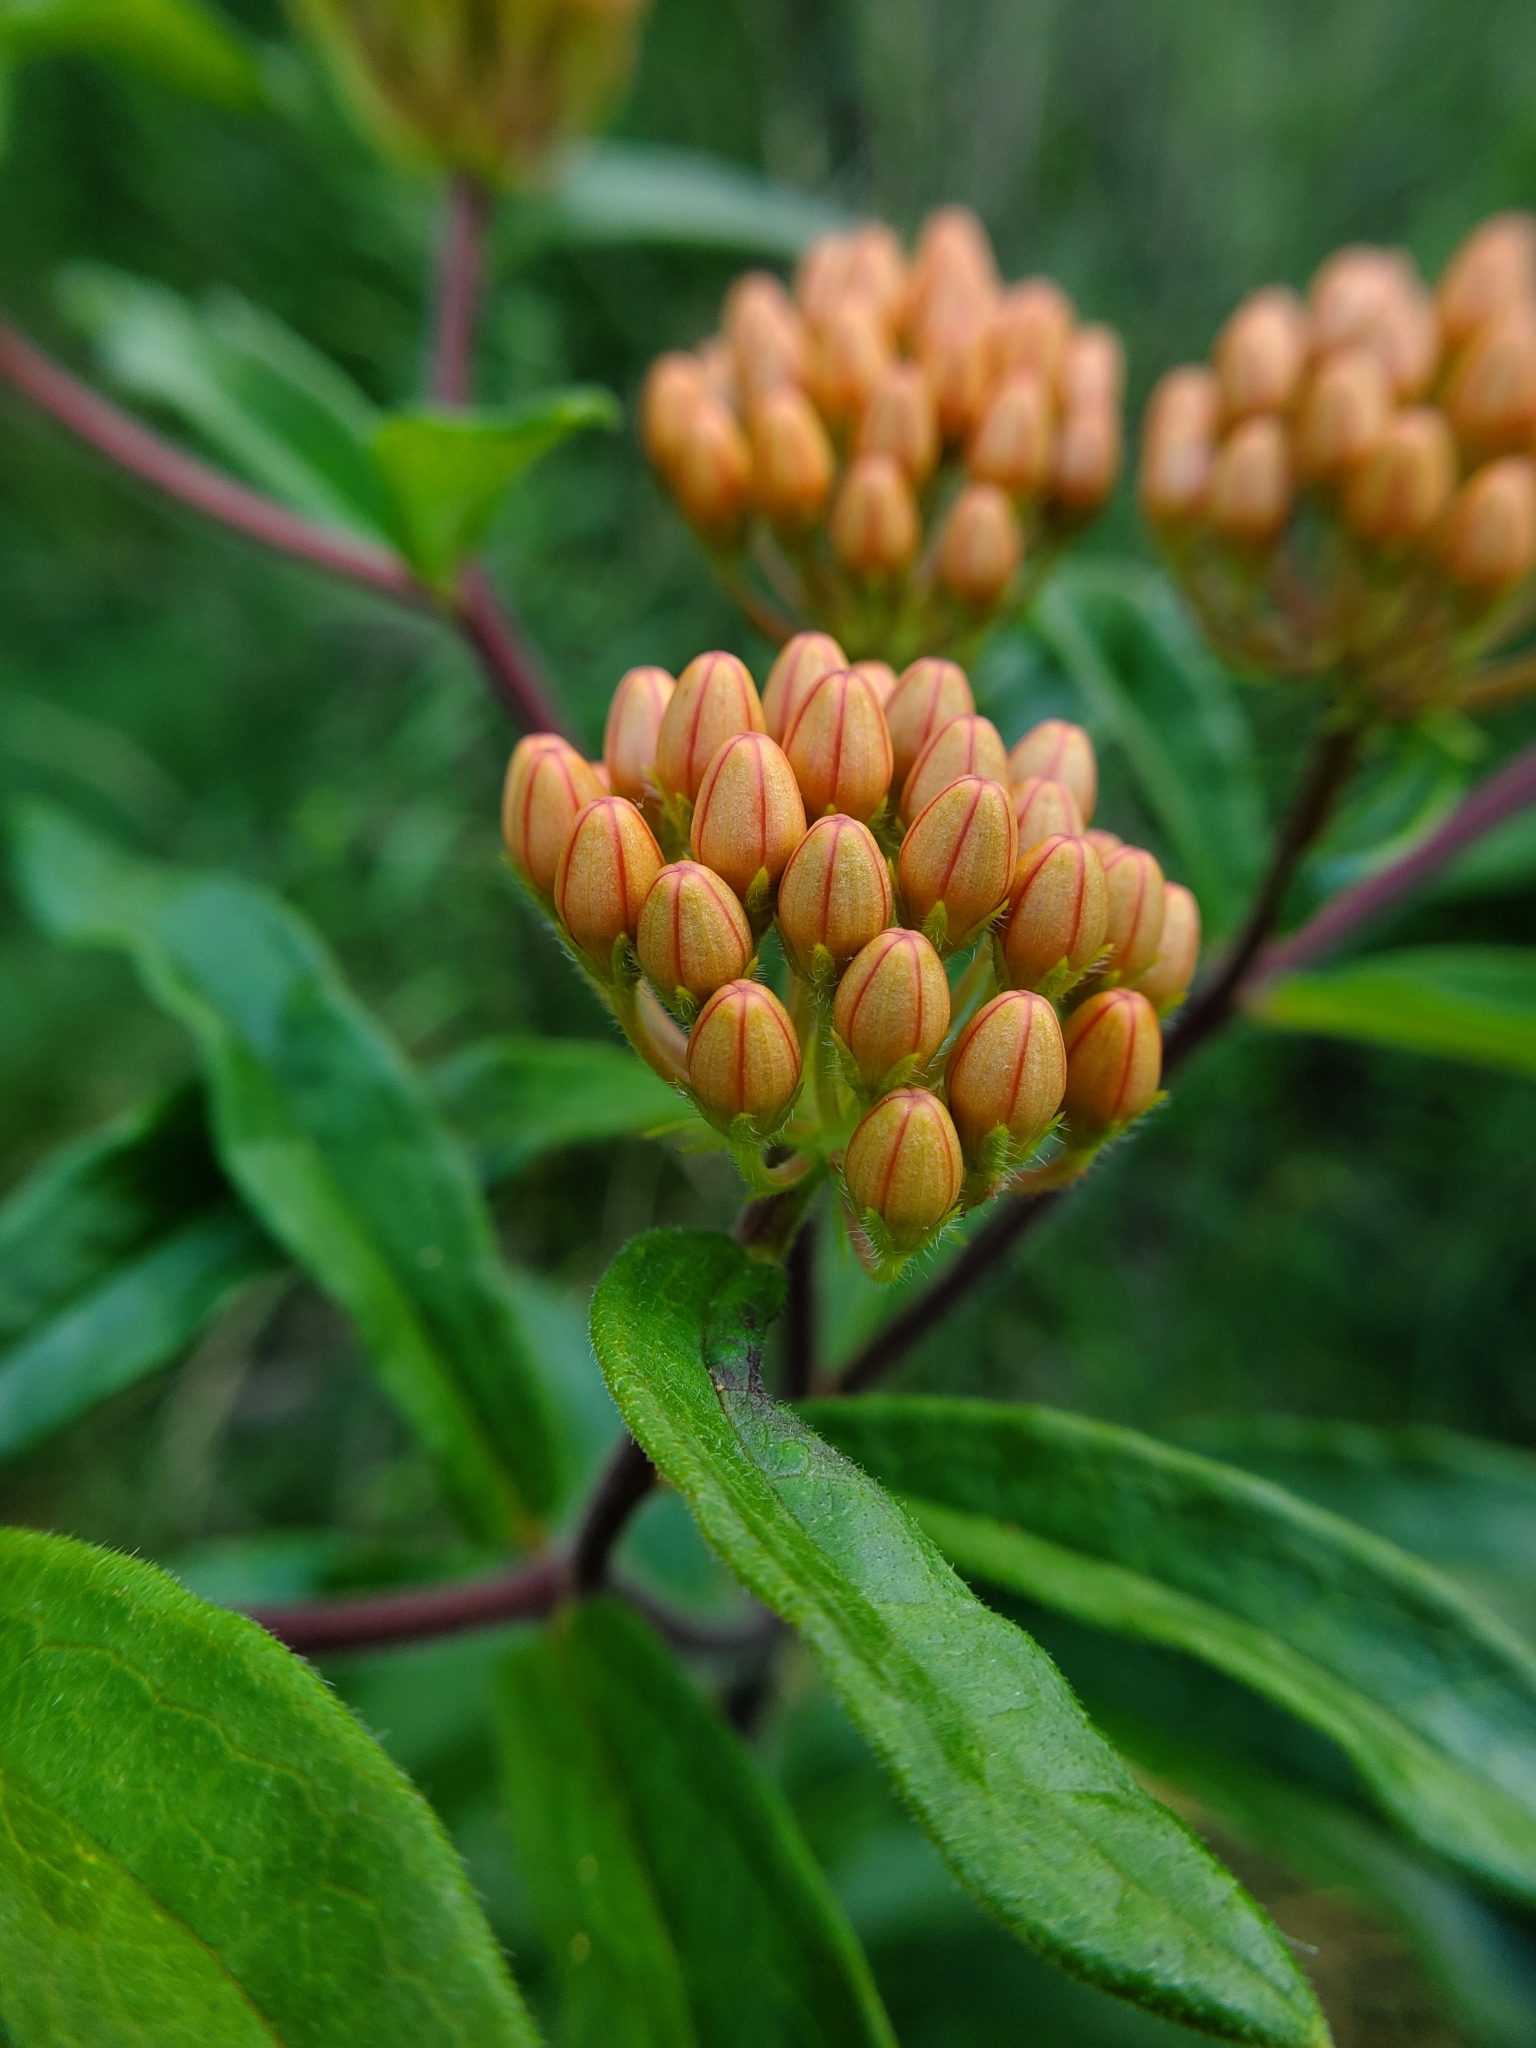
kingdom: Plantae
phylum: Tracheophyta
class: Magnoliopsida
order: Gentianales
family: Apocynaceae
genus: Asclepias
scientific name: Asclepias tuberosa
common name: Butterfly milkweed
